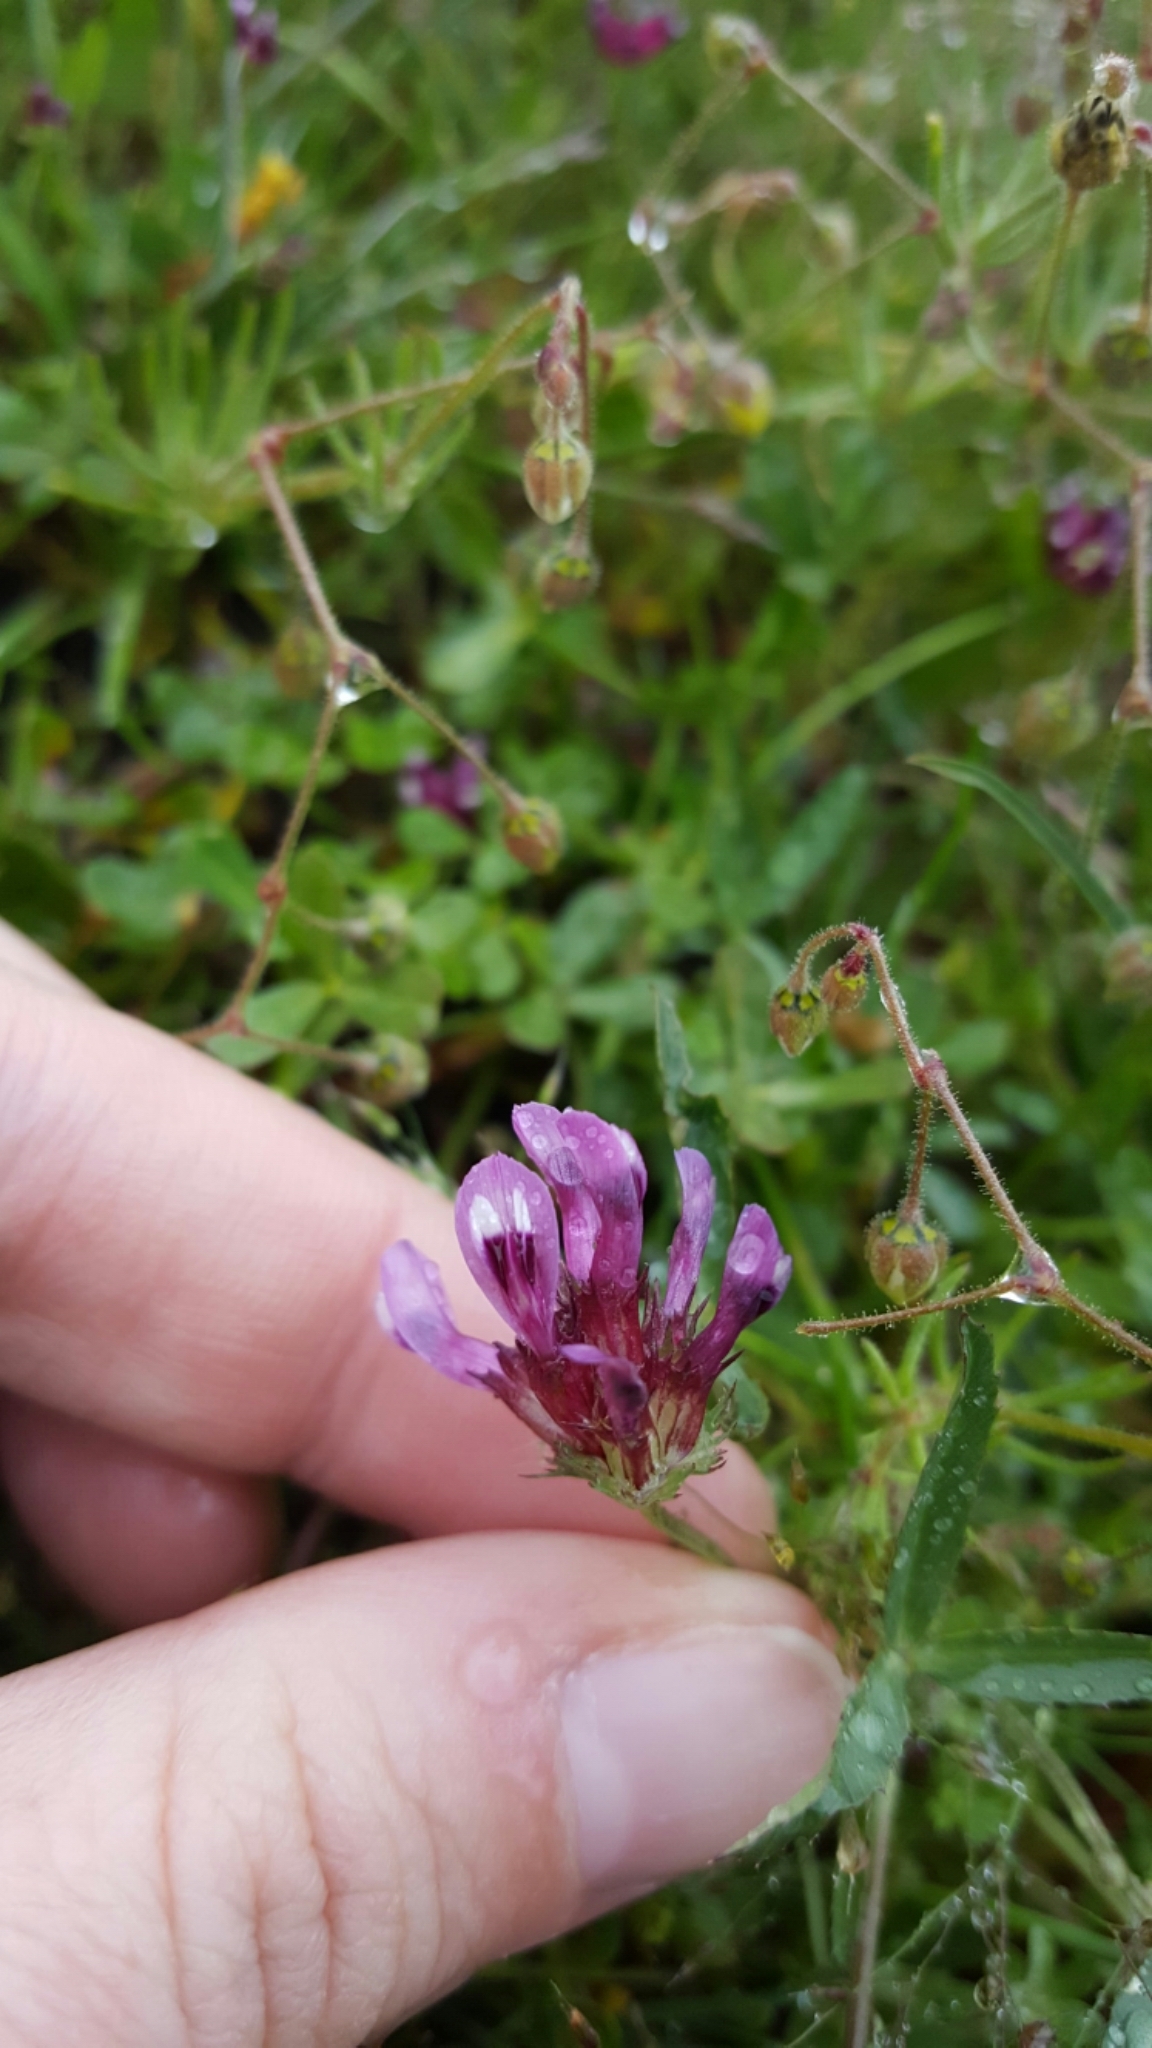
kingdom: Plantae
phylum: Tracheophyta
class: Magnoliopsida
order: Fabales
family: Fabaceae
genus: Trifolium
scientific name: Trifolium willdenovii
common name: Tomcat clover
